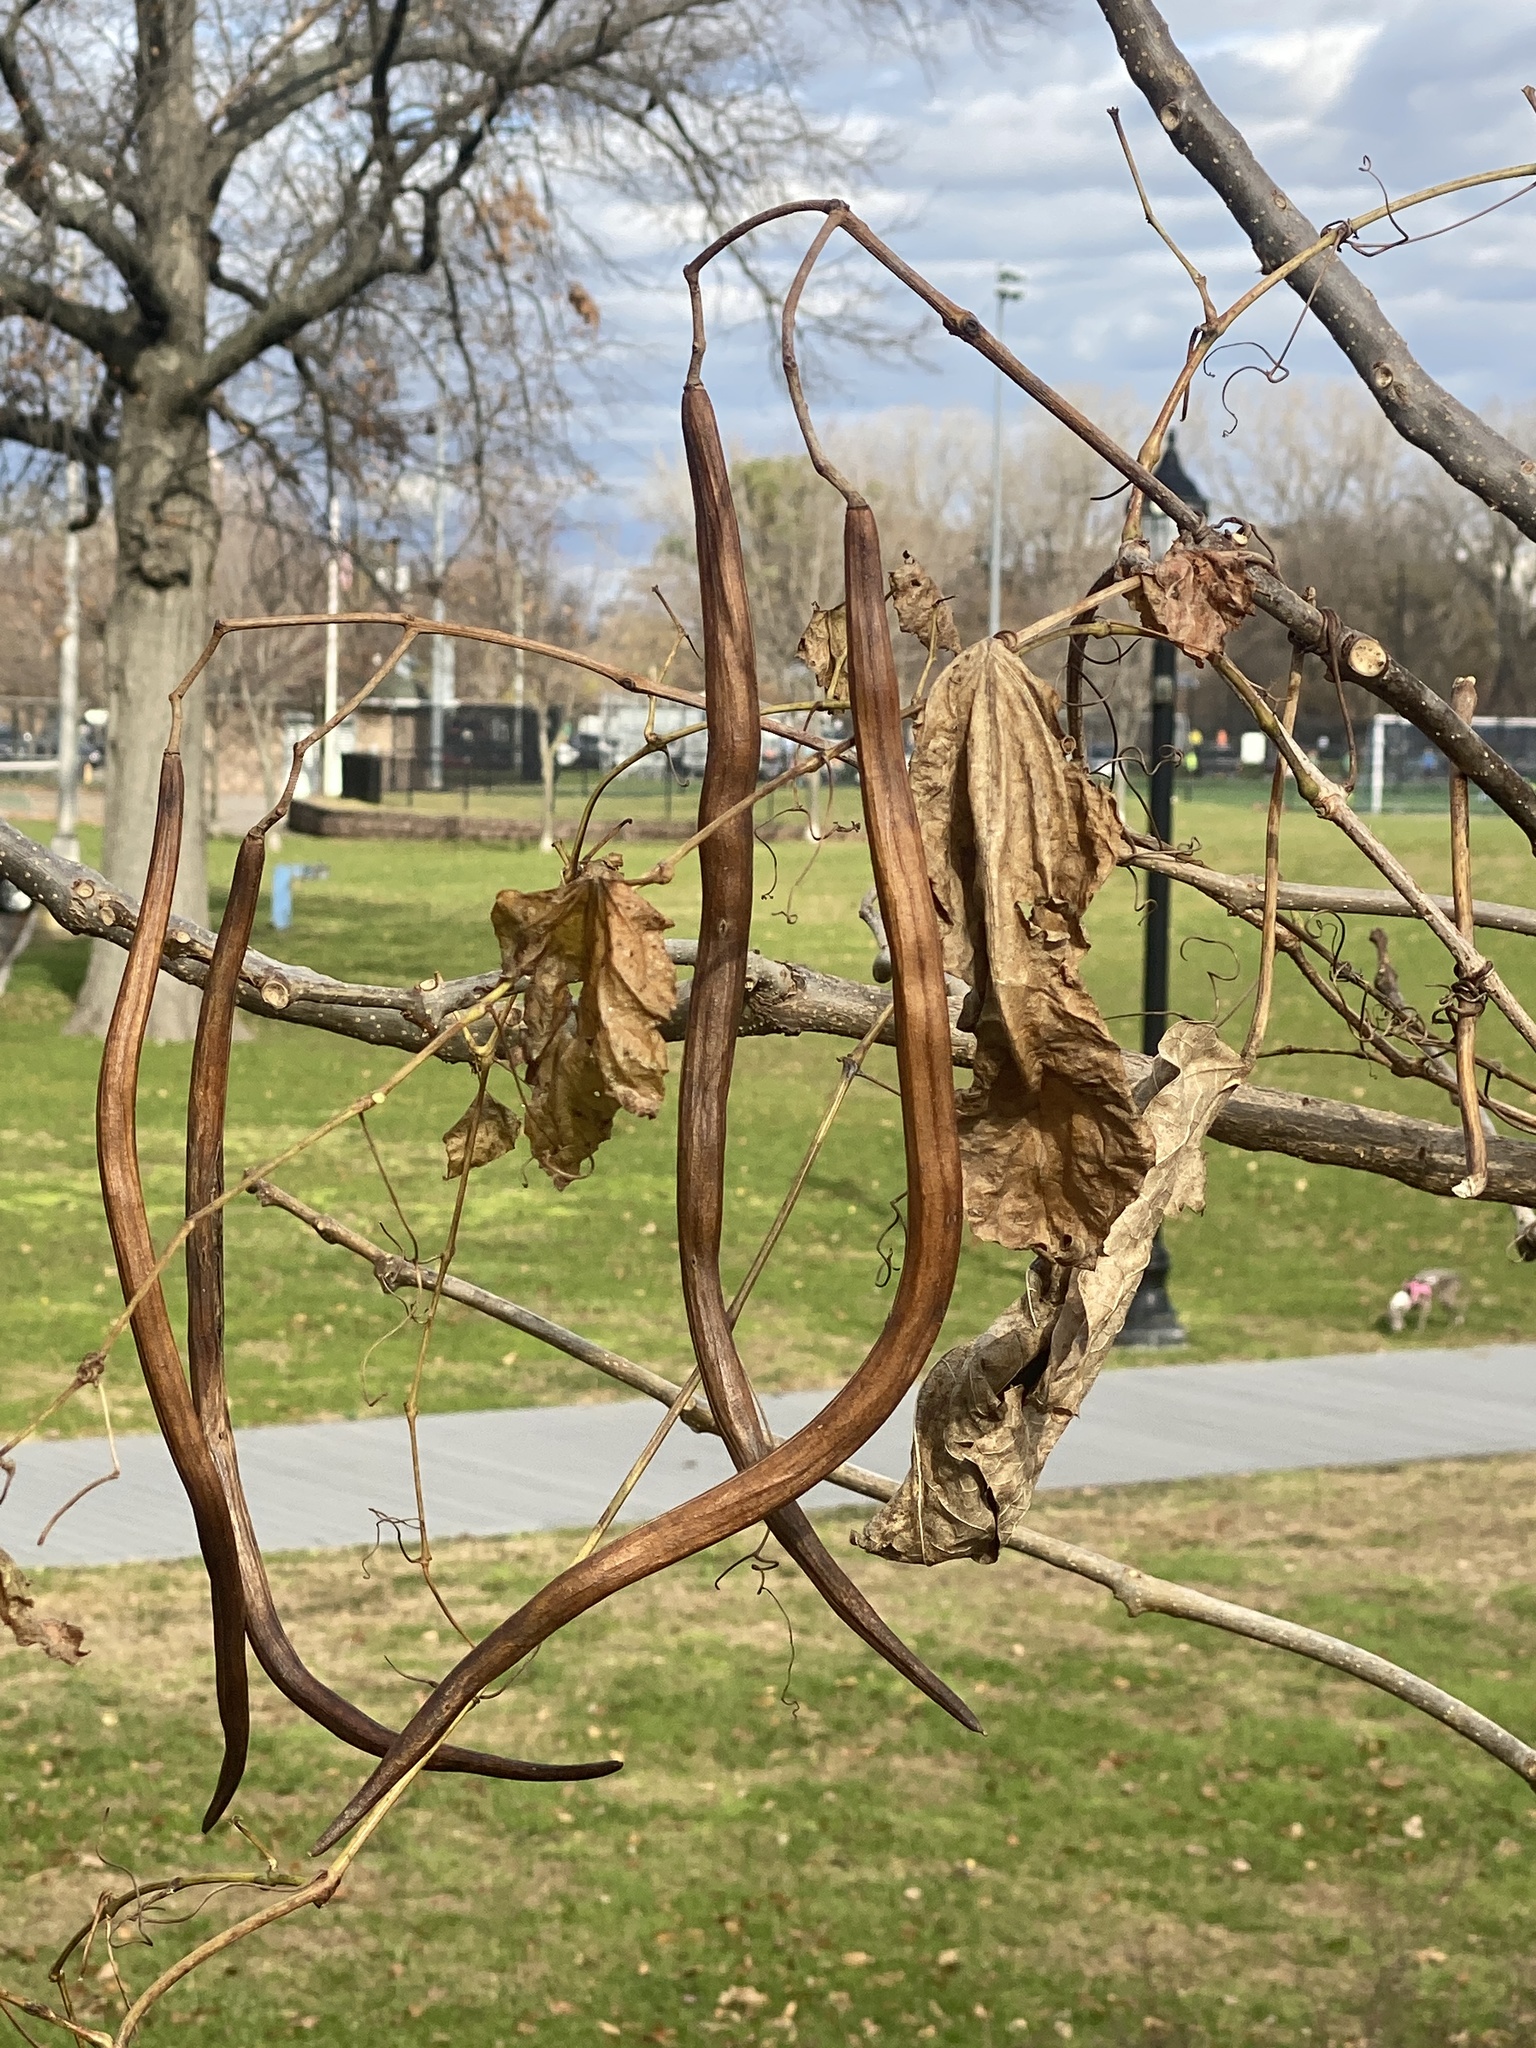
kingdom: Plantae
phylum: Tracheophyta
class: Magnoliopsida
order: Lamiales
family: Bignoniaceae
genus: Catalpa
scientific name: Catalpa
